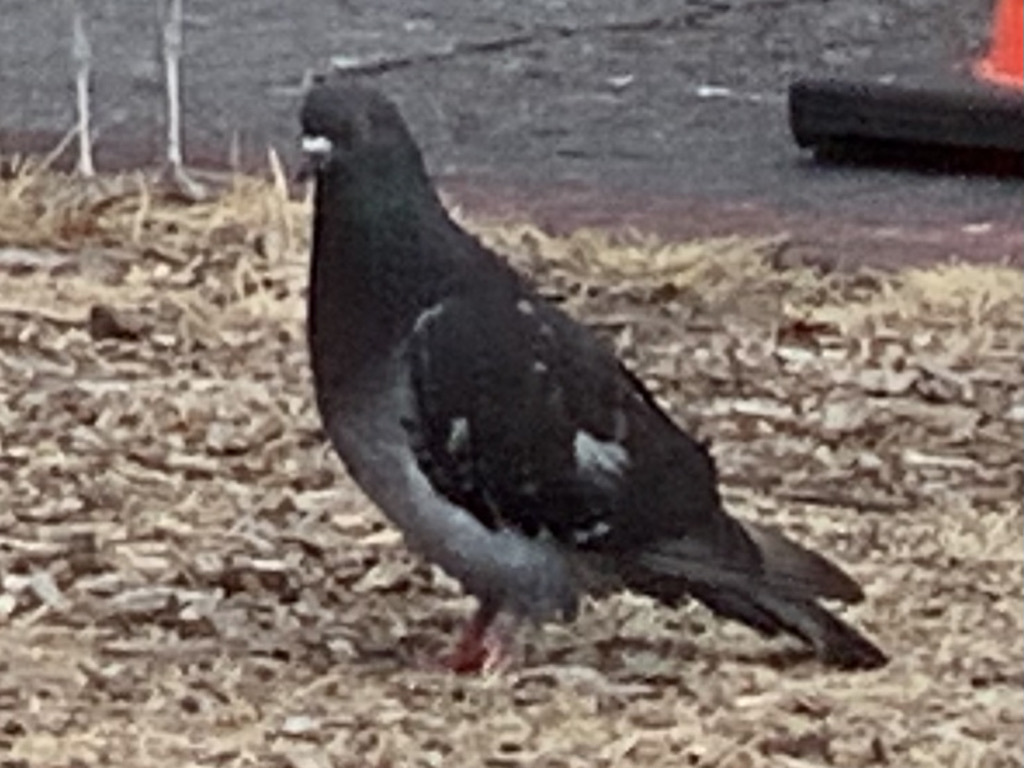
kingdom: Animalia
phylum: Chordata
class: Aves
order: Columbiformes
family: Columbidae
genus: Columba
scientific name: Columba livia
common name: Rock pigeon
